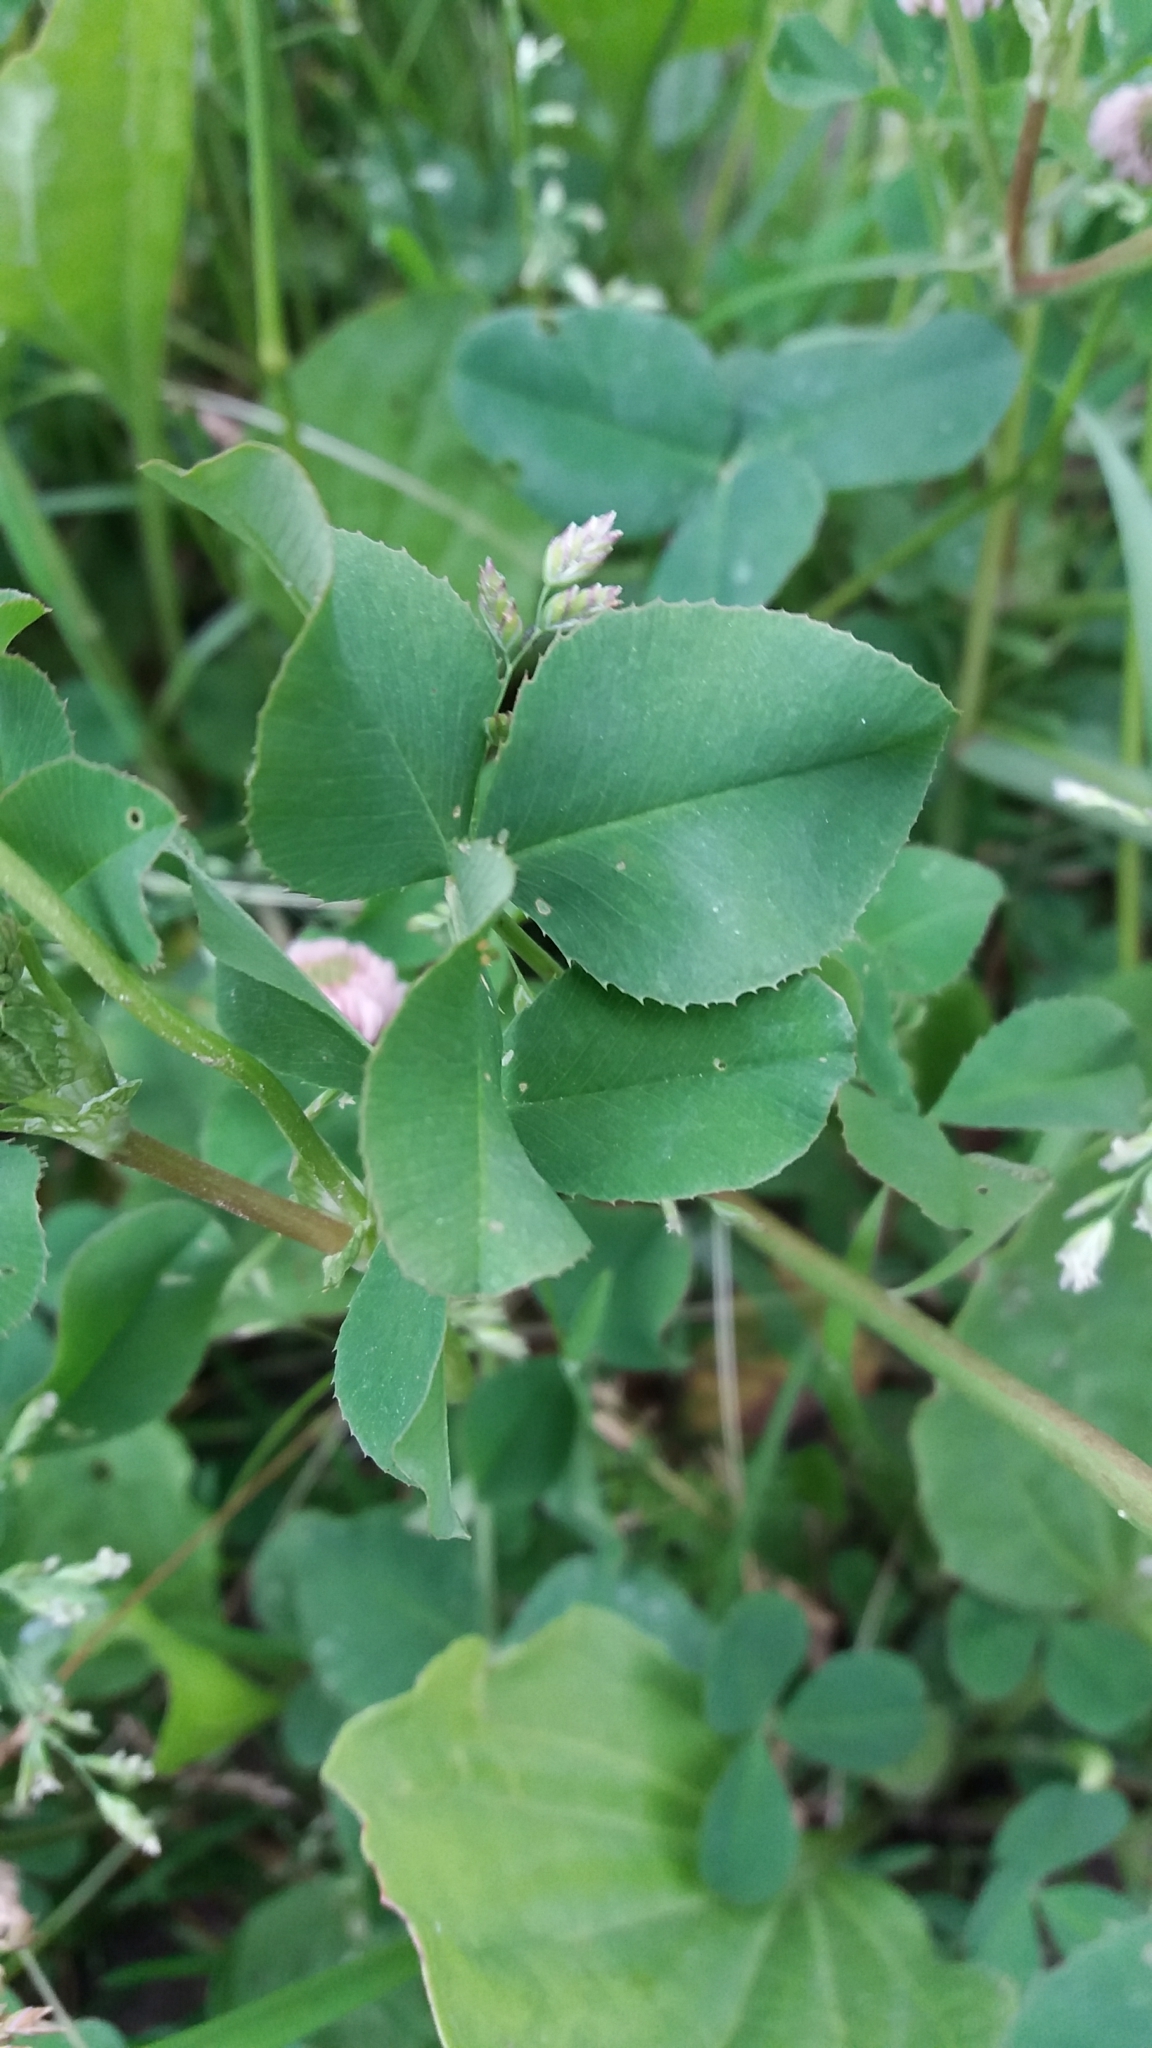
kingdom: Plantae
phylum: Tracheophyta
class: Magnoliopsida
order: Fabales
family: Fabaceae
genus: Trifolium
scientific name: Trifolium hybridum
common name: Alsike clover
